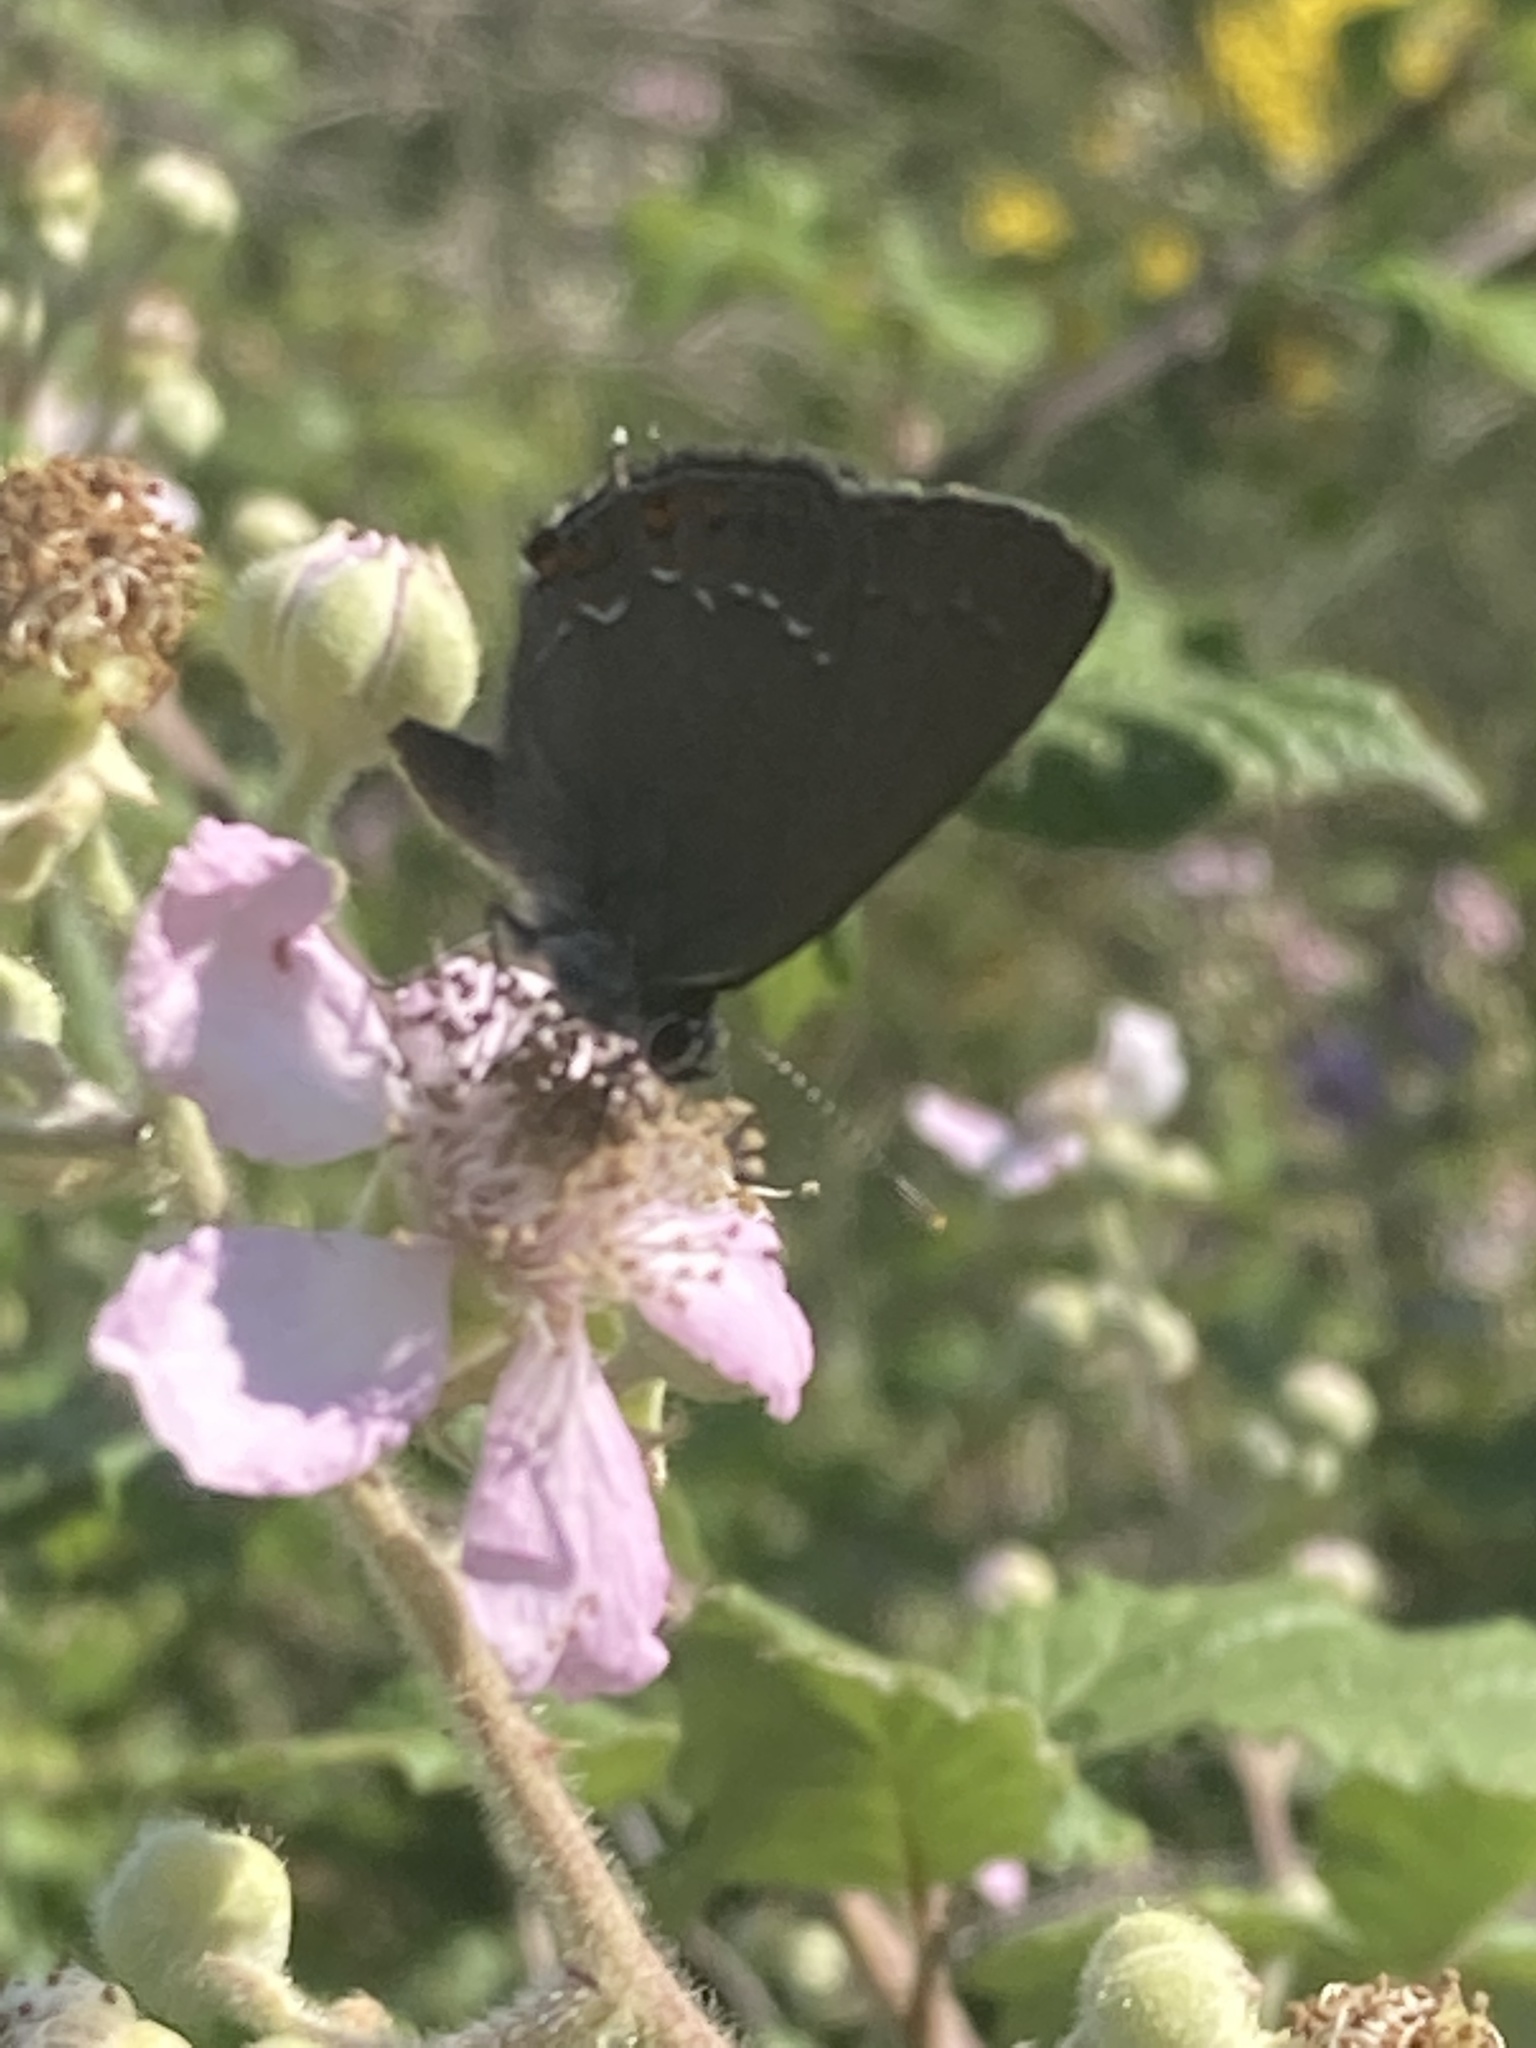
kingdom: Animalia
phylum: Arthropoda
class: Insecta
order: Lepidoptera
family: Lycaenidae
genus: Nordmannia
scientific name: Nordmannia ilicis
